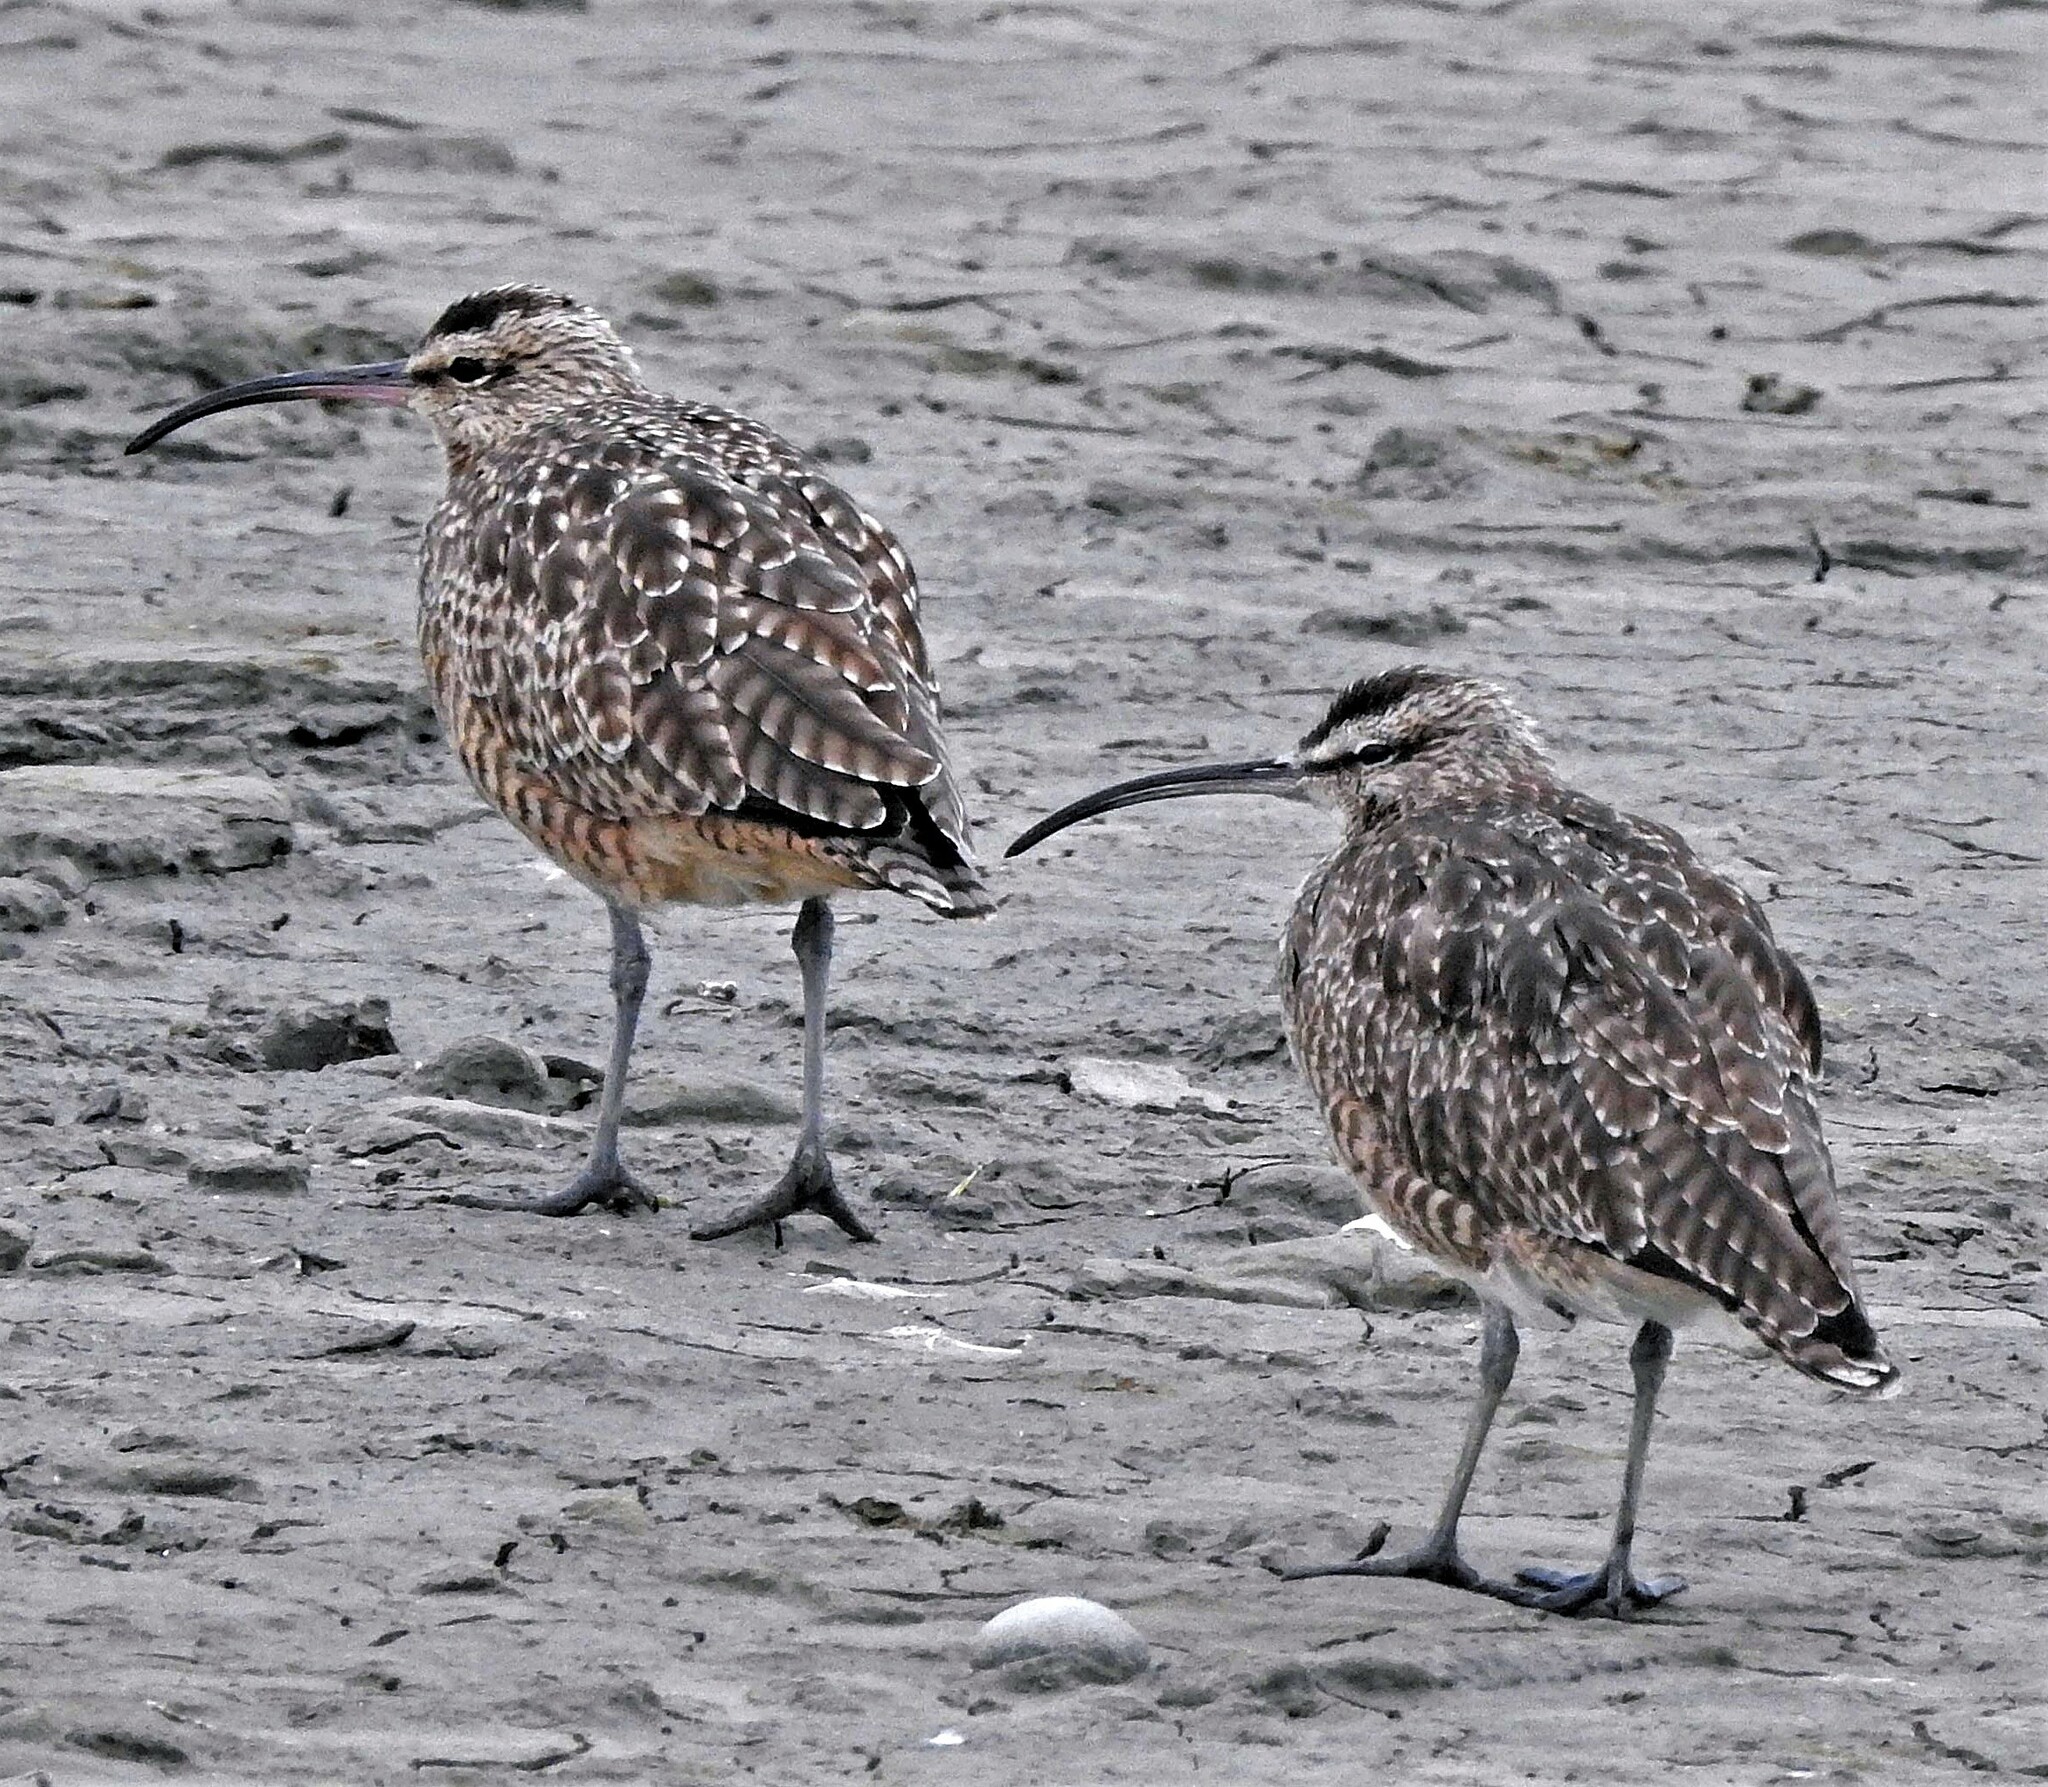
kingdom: Animalia
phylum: Chordata
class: Aves
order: Charadriiformes
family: Scolopacidae
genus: Numenius
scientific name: Numenius phaeopus
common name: Whimbrel
